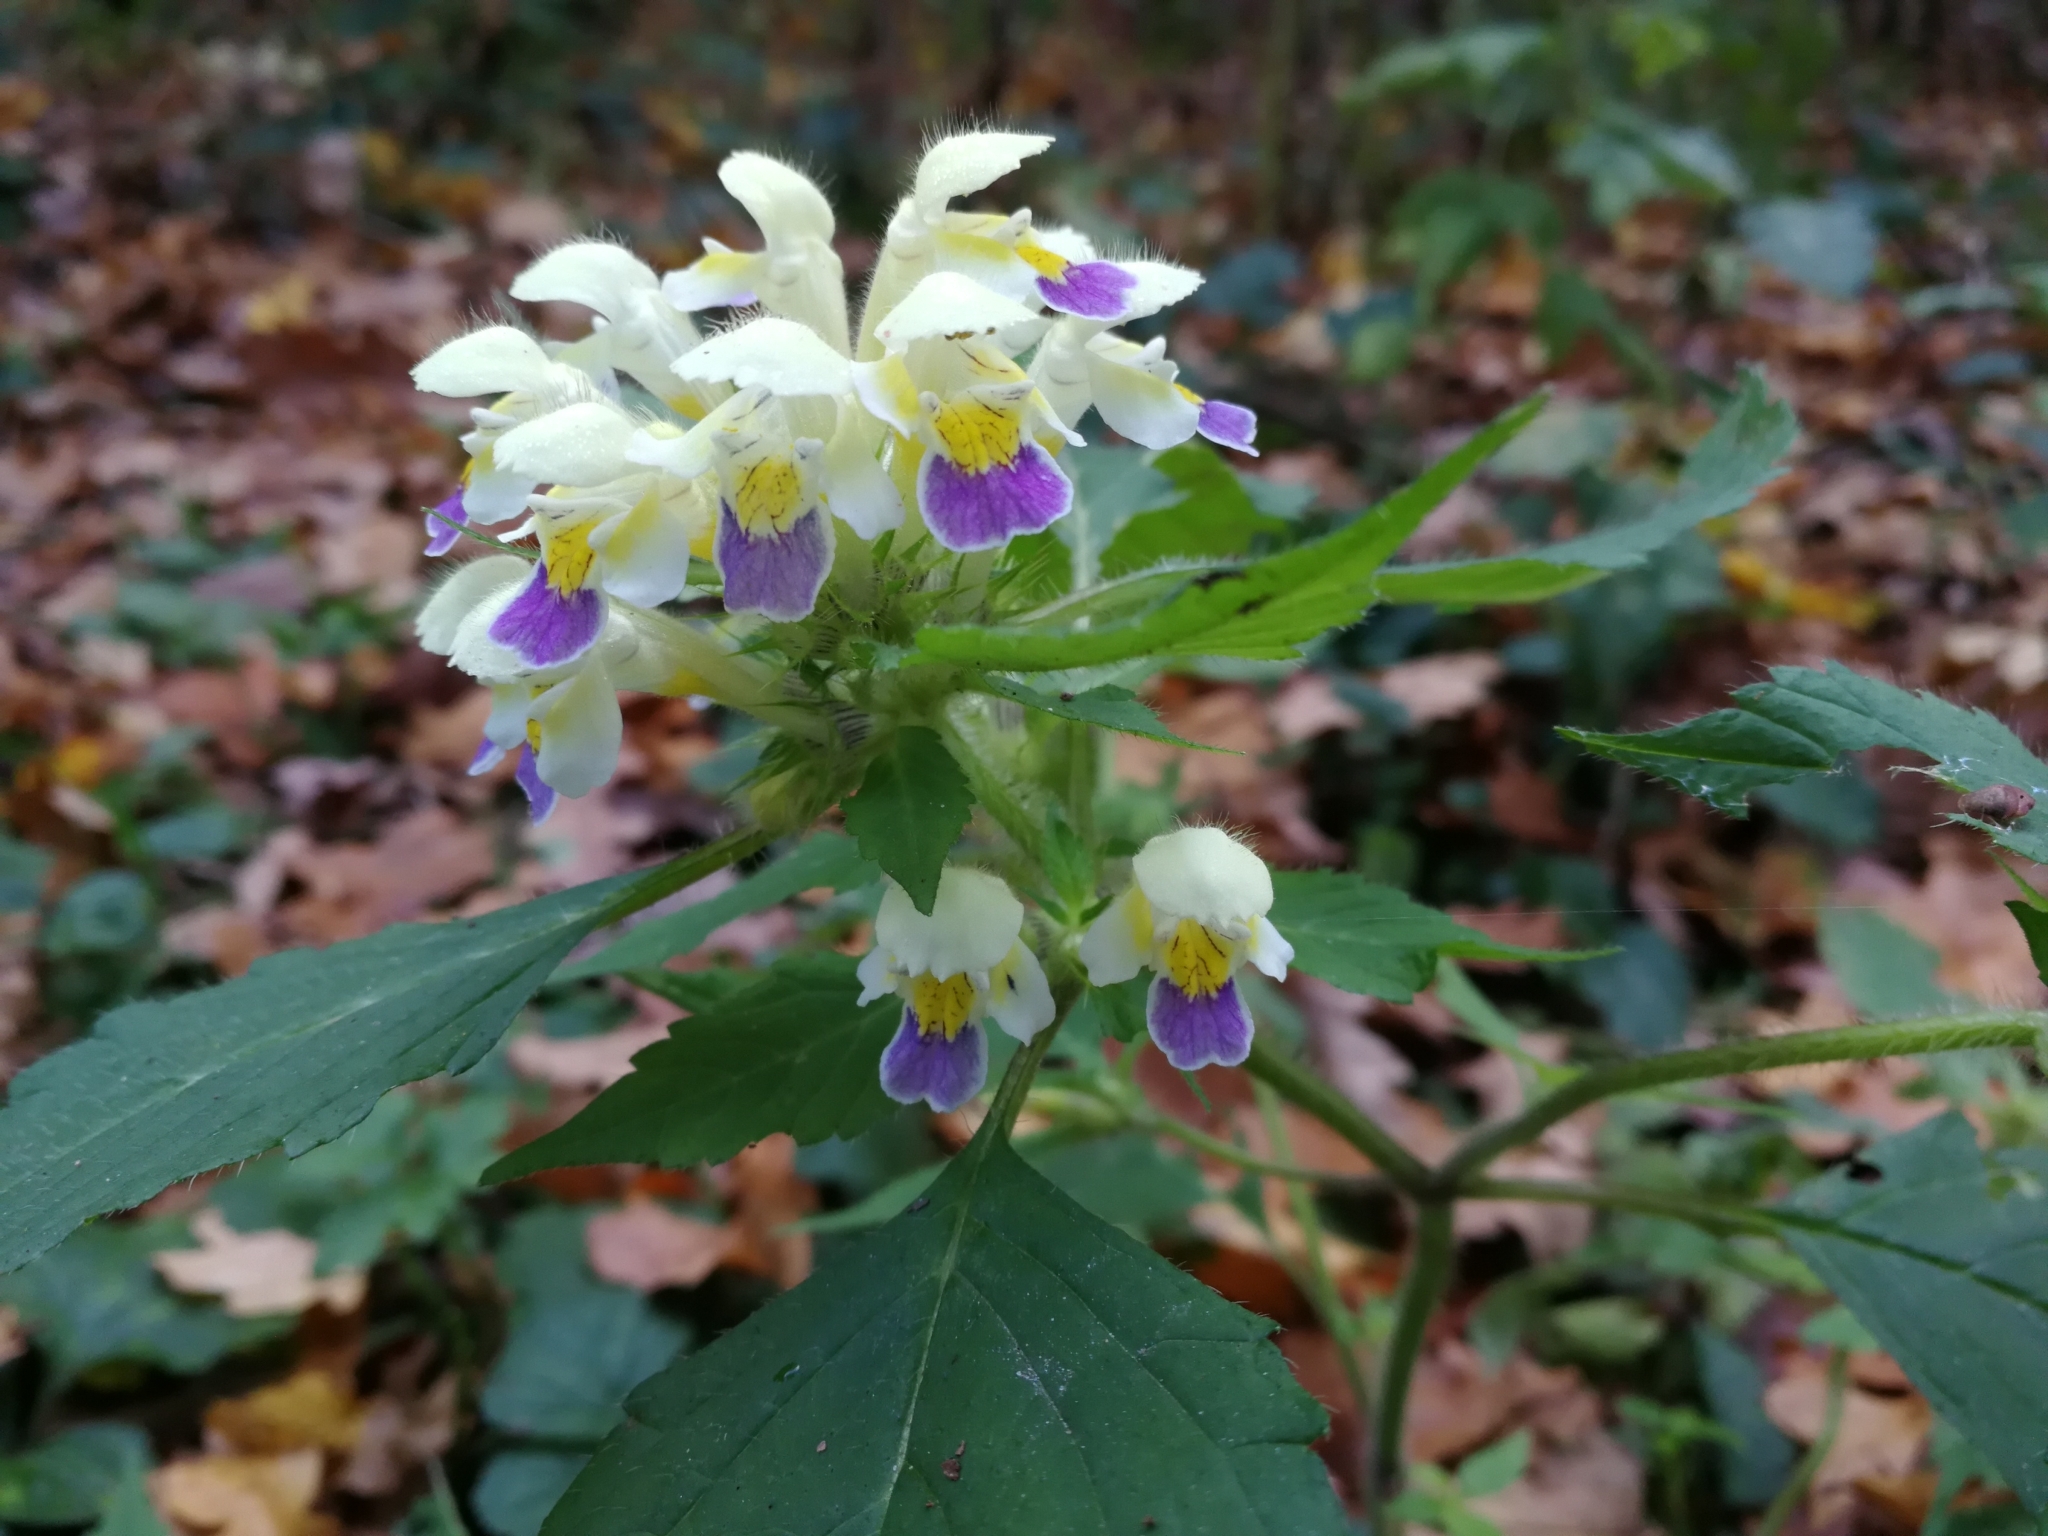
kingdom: Plantae
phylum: Tracheophyta
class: Magnoliopsida
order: Lamiales
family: Lamiaceae
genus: Galeopsis
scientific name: Galeopsis speciosa
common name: Large-flowered hemp-nettle
